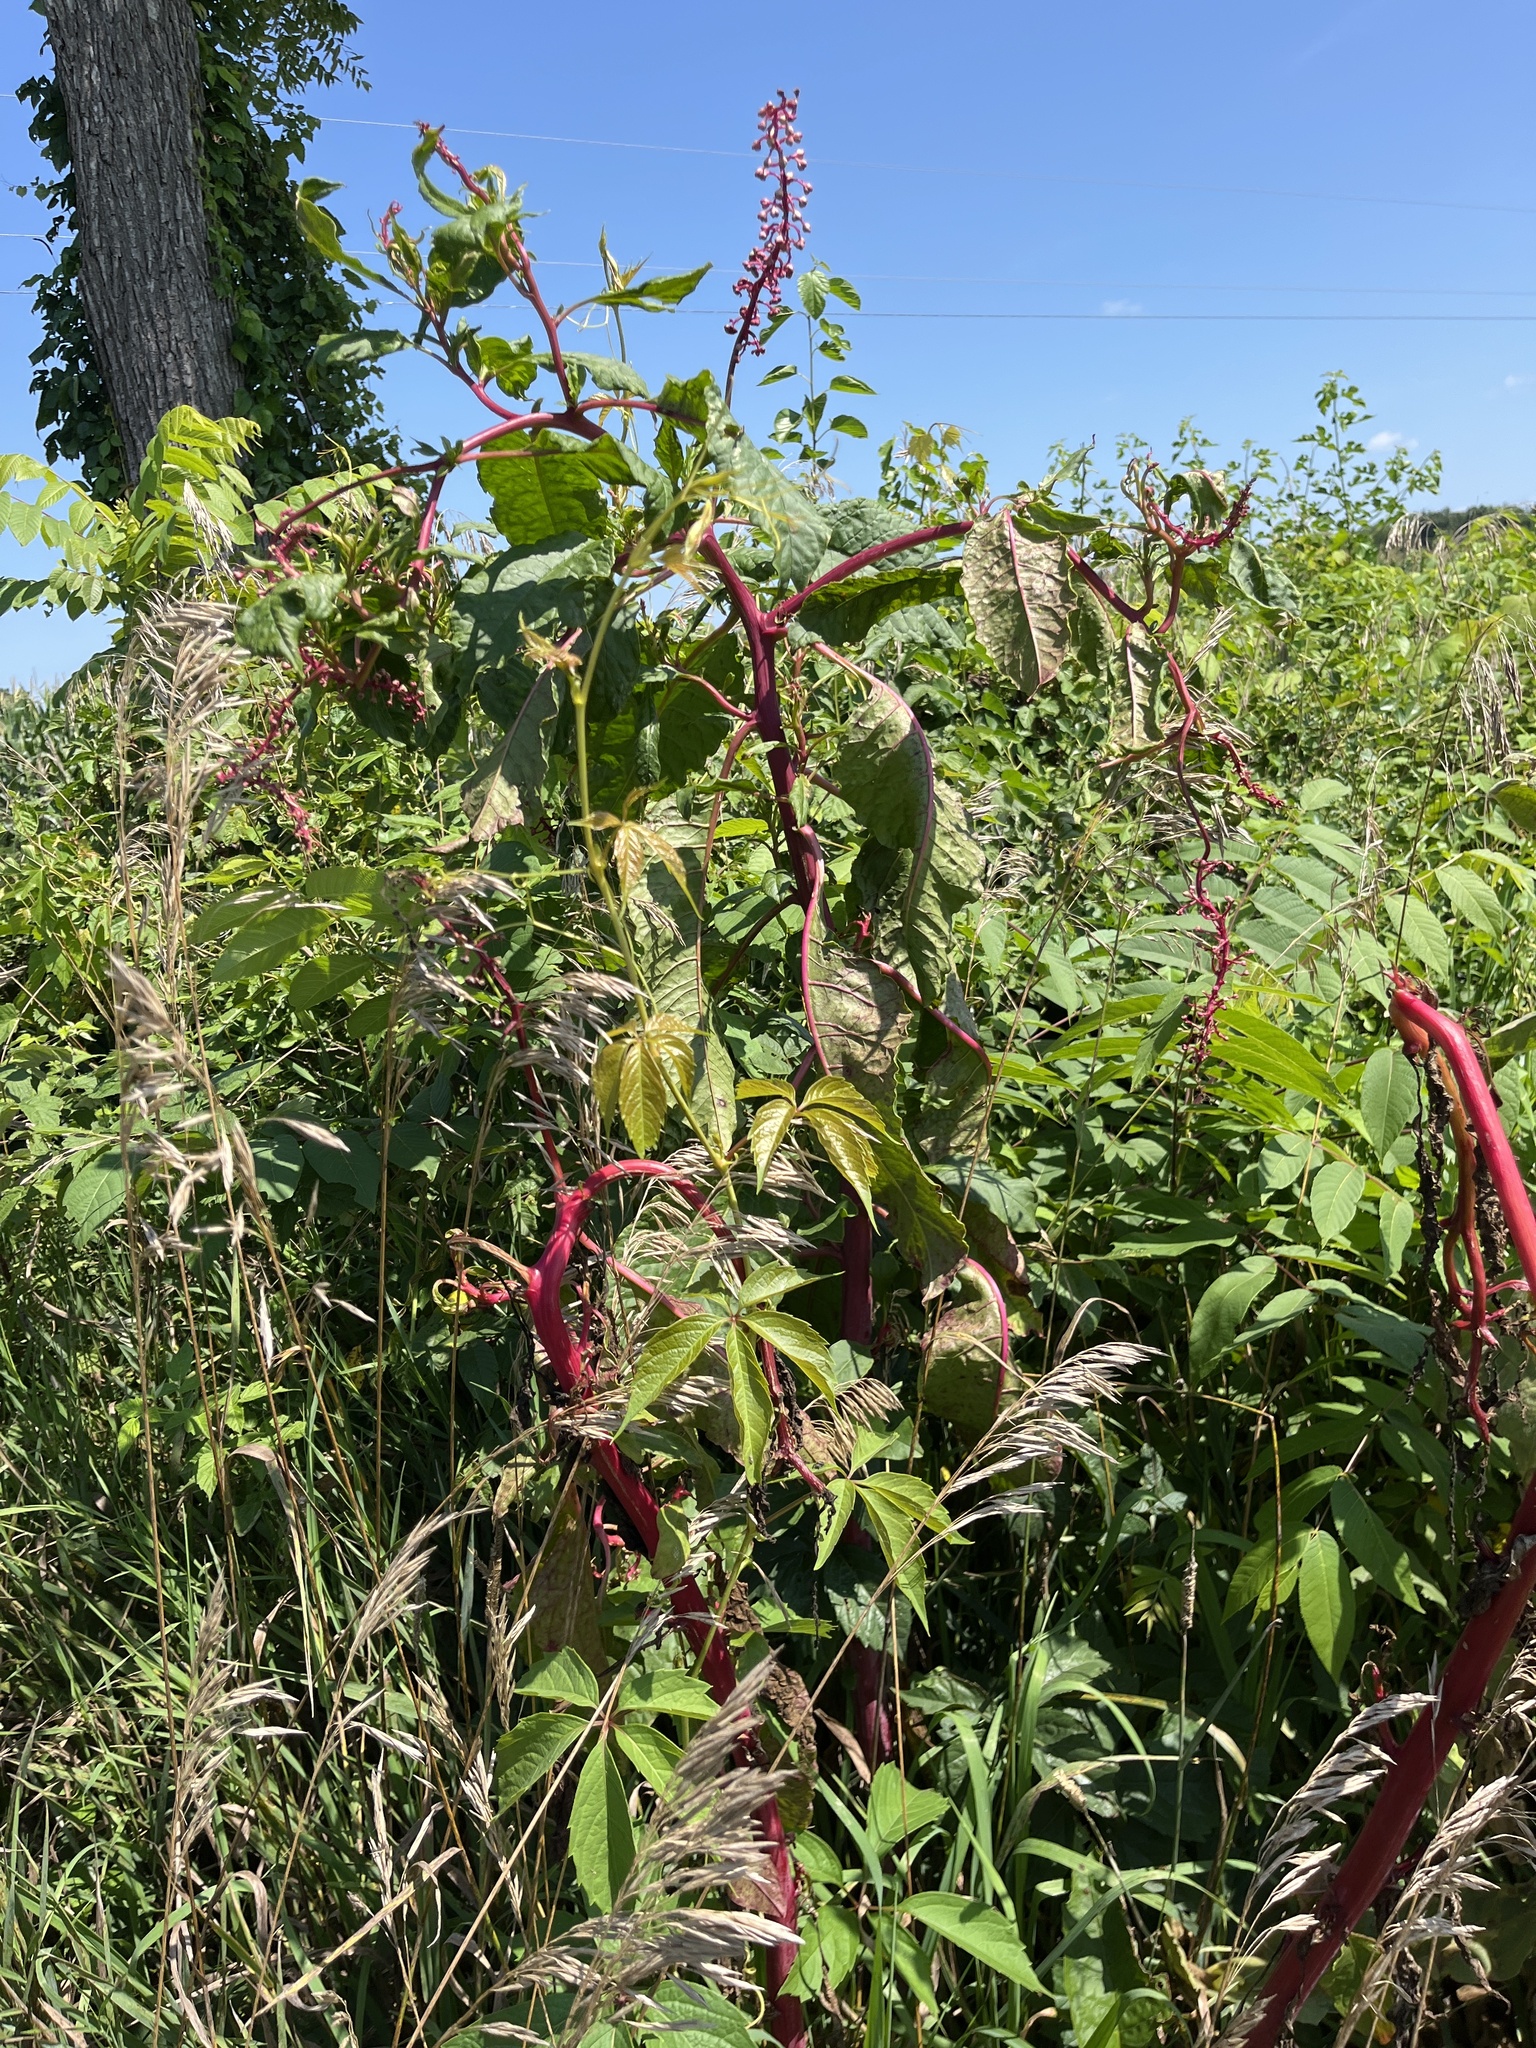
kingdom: Plantae
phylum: Tracheophyta
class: Magnoliopsida
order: Caryophyllales
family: Phytolaccaceae
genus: Phytolacca
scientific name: Phytolacca americana
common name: American pokeweed
